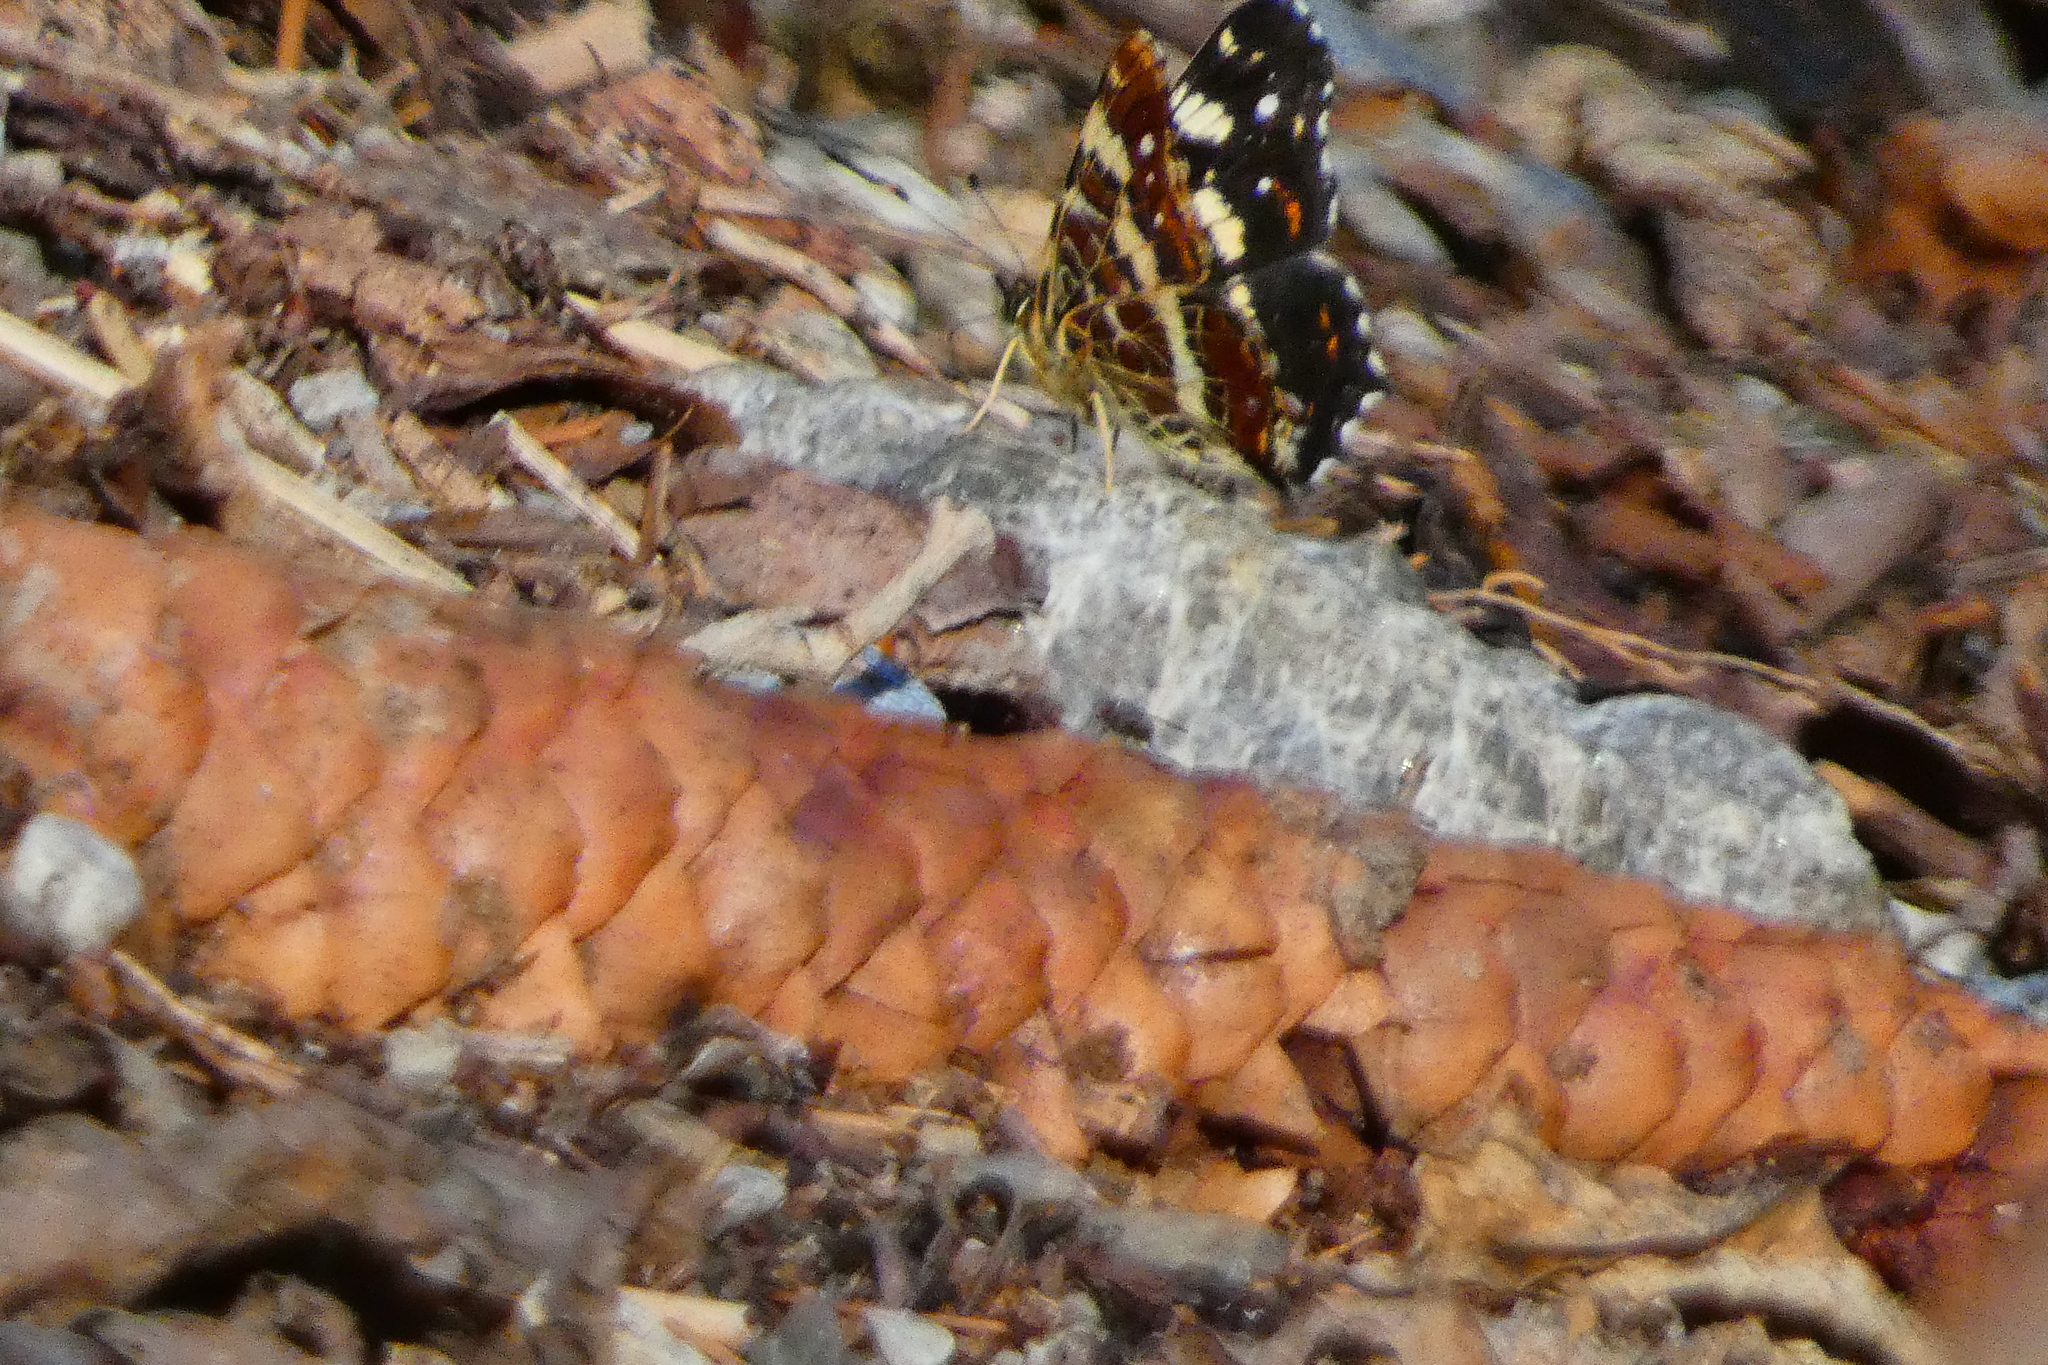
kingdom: Animalia
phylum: Arthropoda
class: Insecta
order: Lepidoptera
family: Nymphalidae
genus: Araschnia
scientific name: Araschnia levana
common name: Map butterfly
